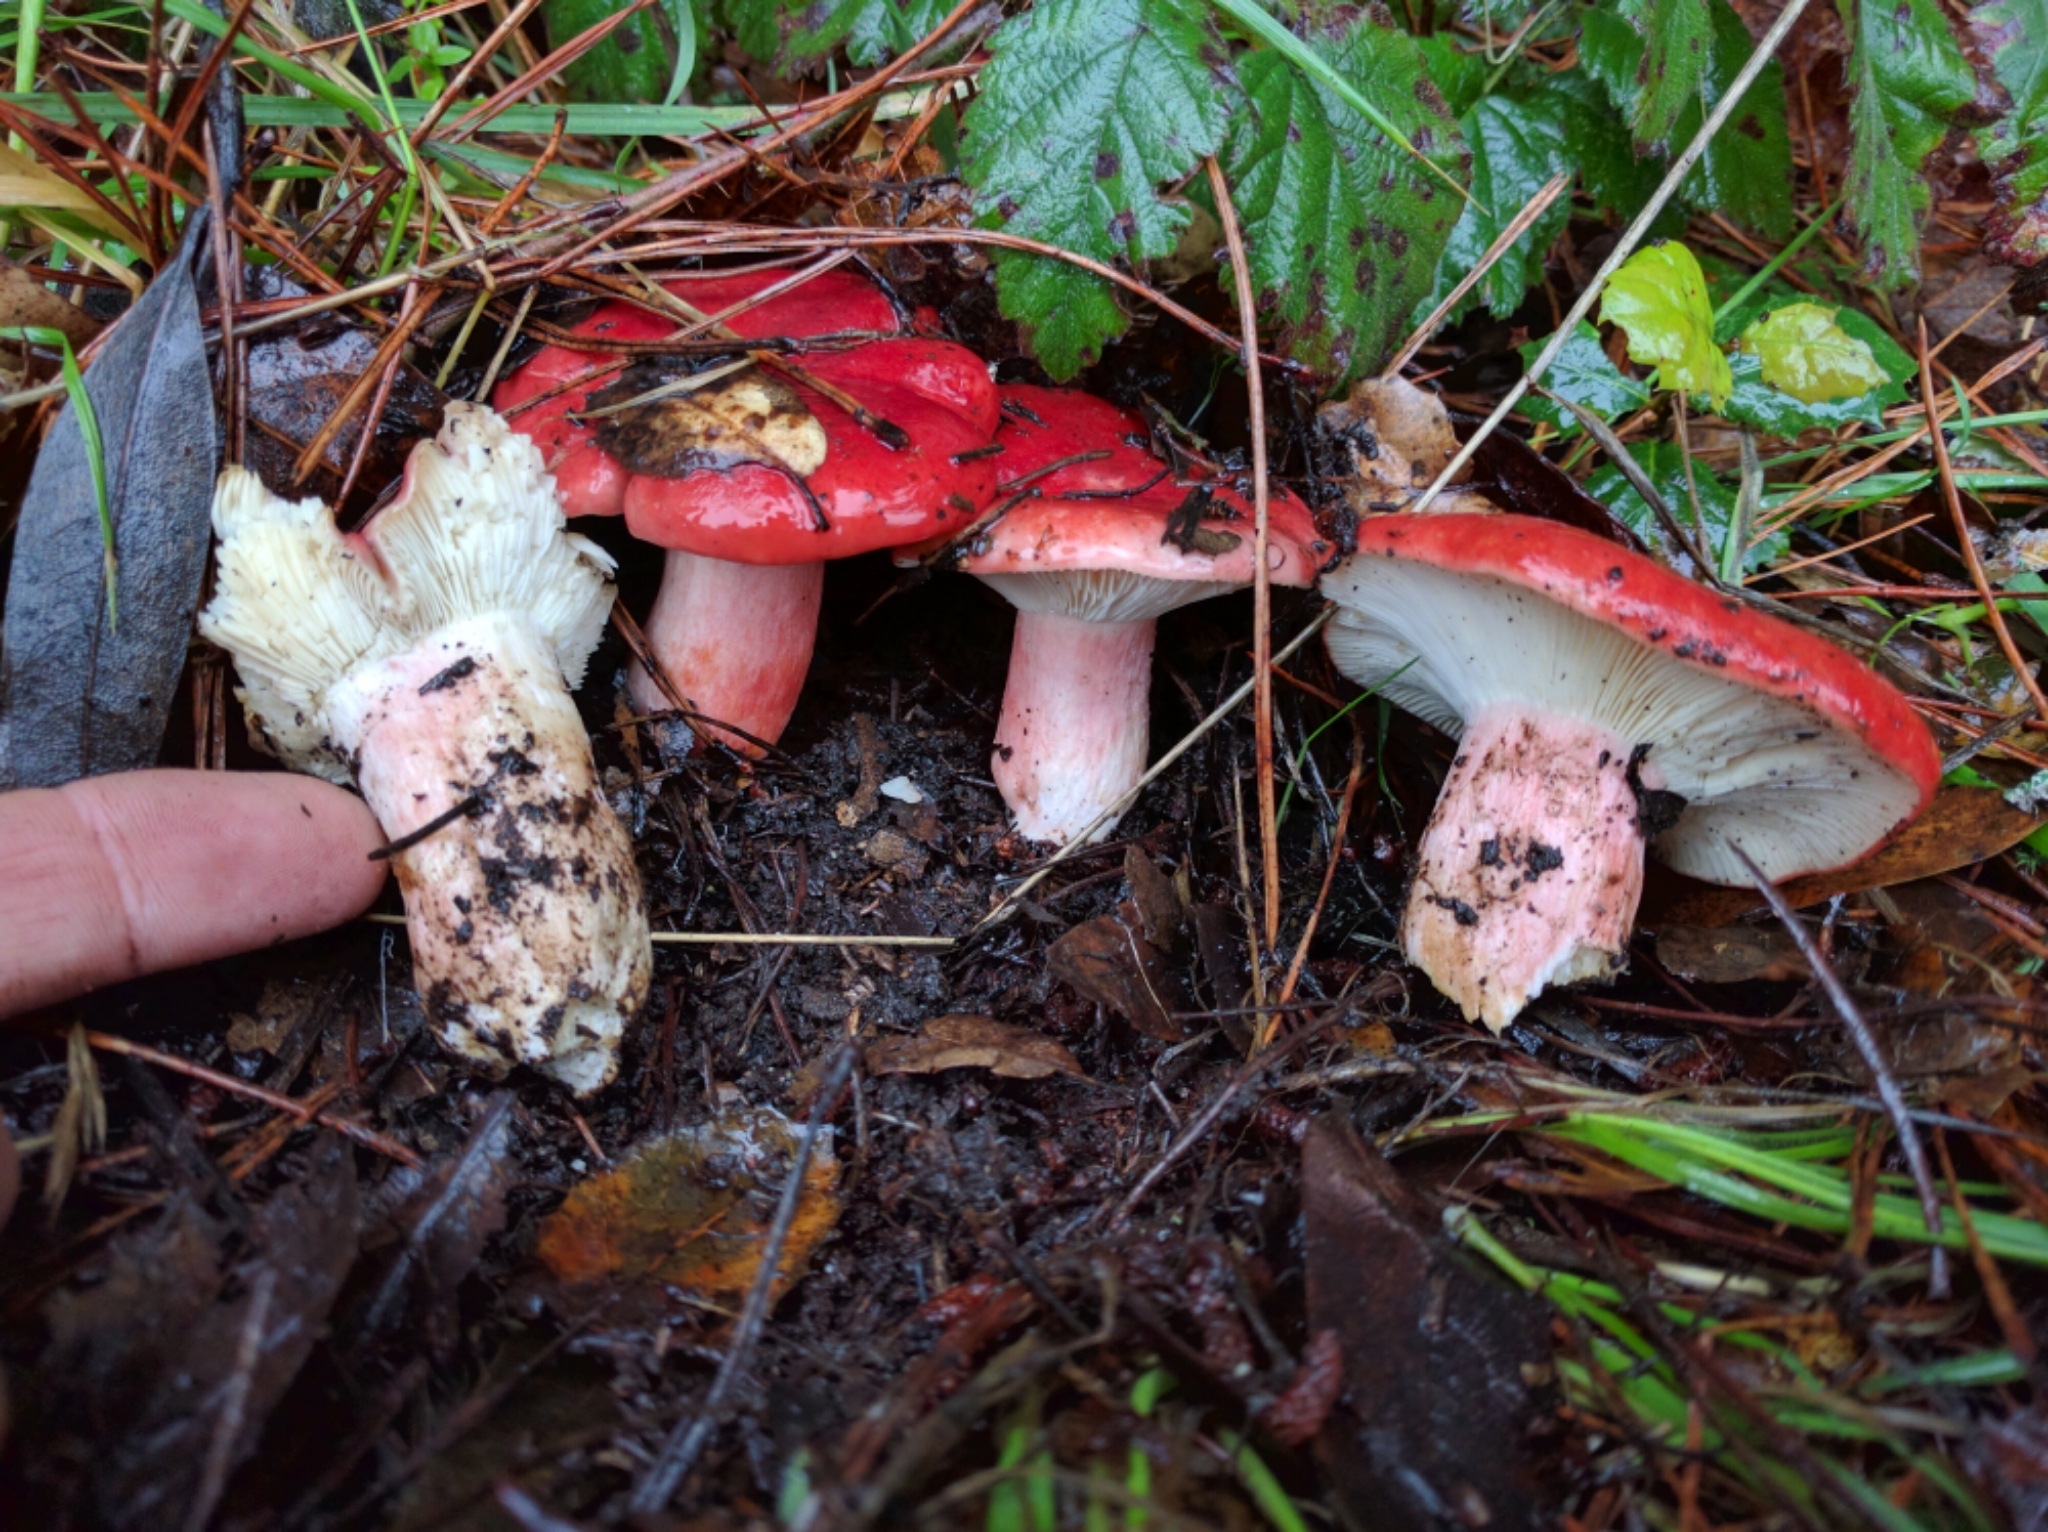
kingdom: Fungi
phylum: Basidiomycota
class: Agaricomycetes
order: Russulales
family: Russulaceae
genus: Russula
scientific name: Russula sanguinea
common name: Bloody brittlegill
